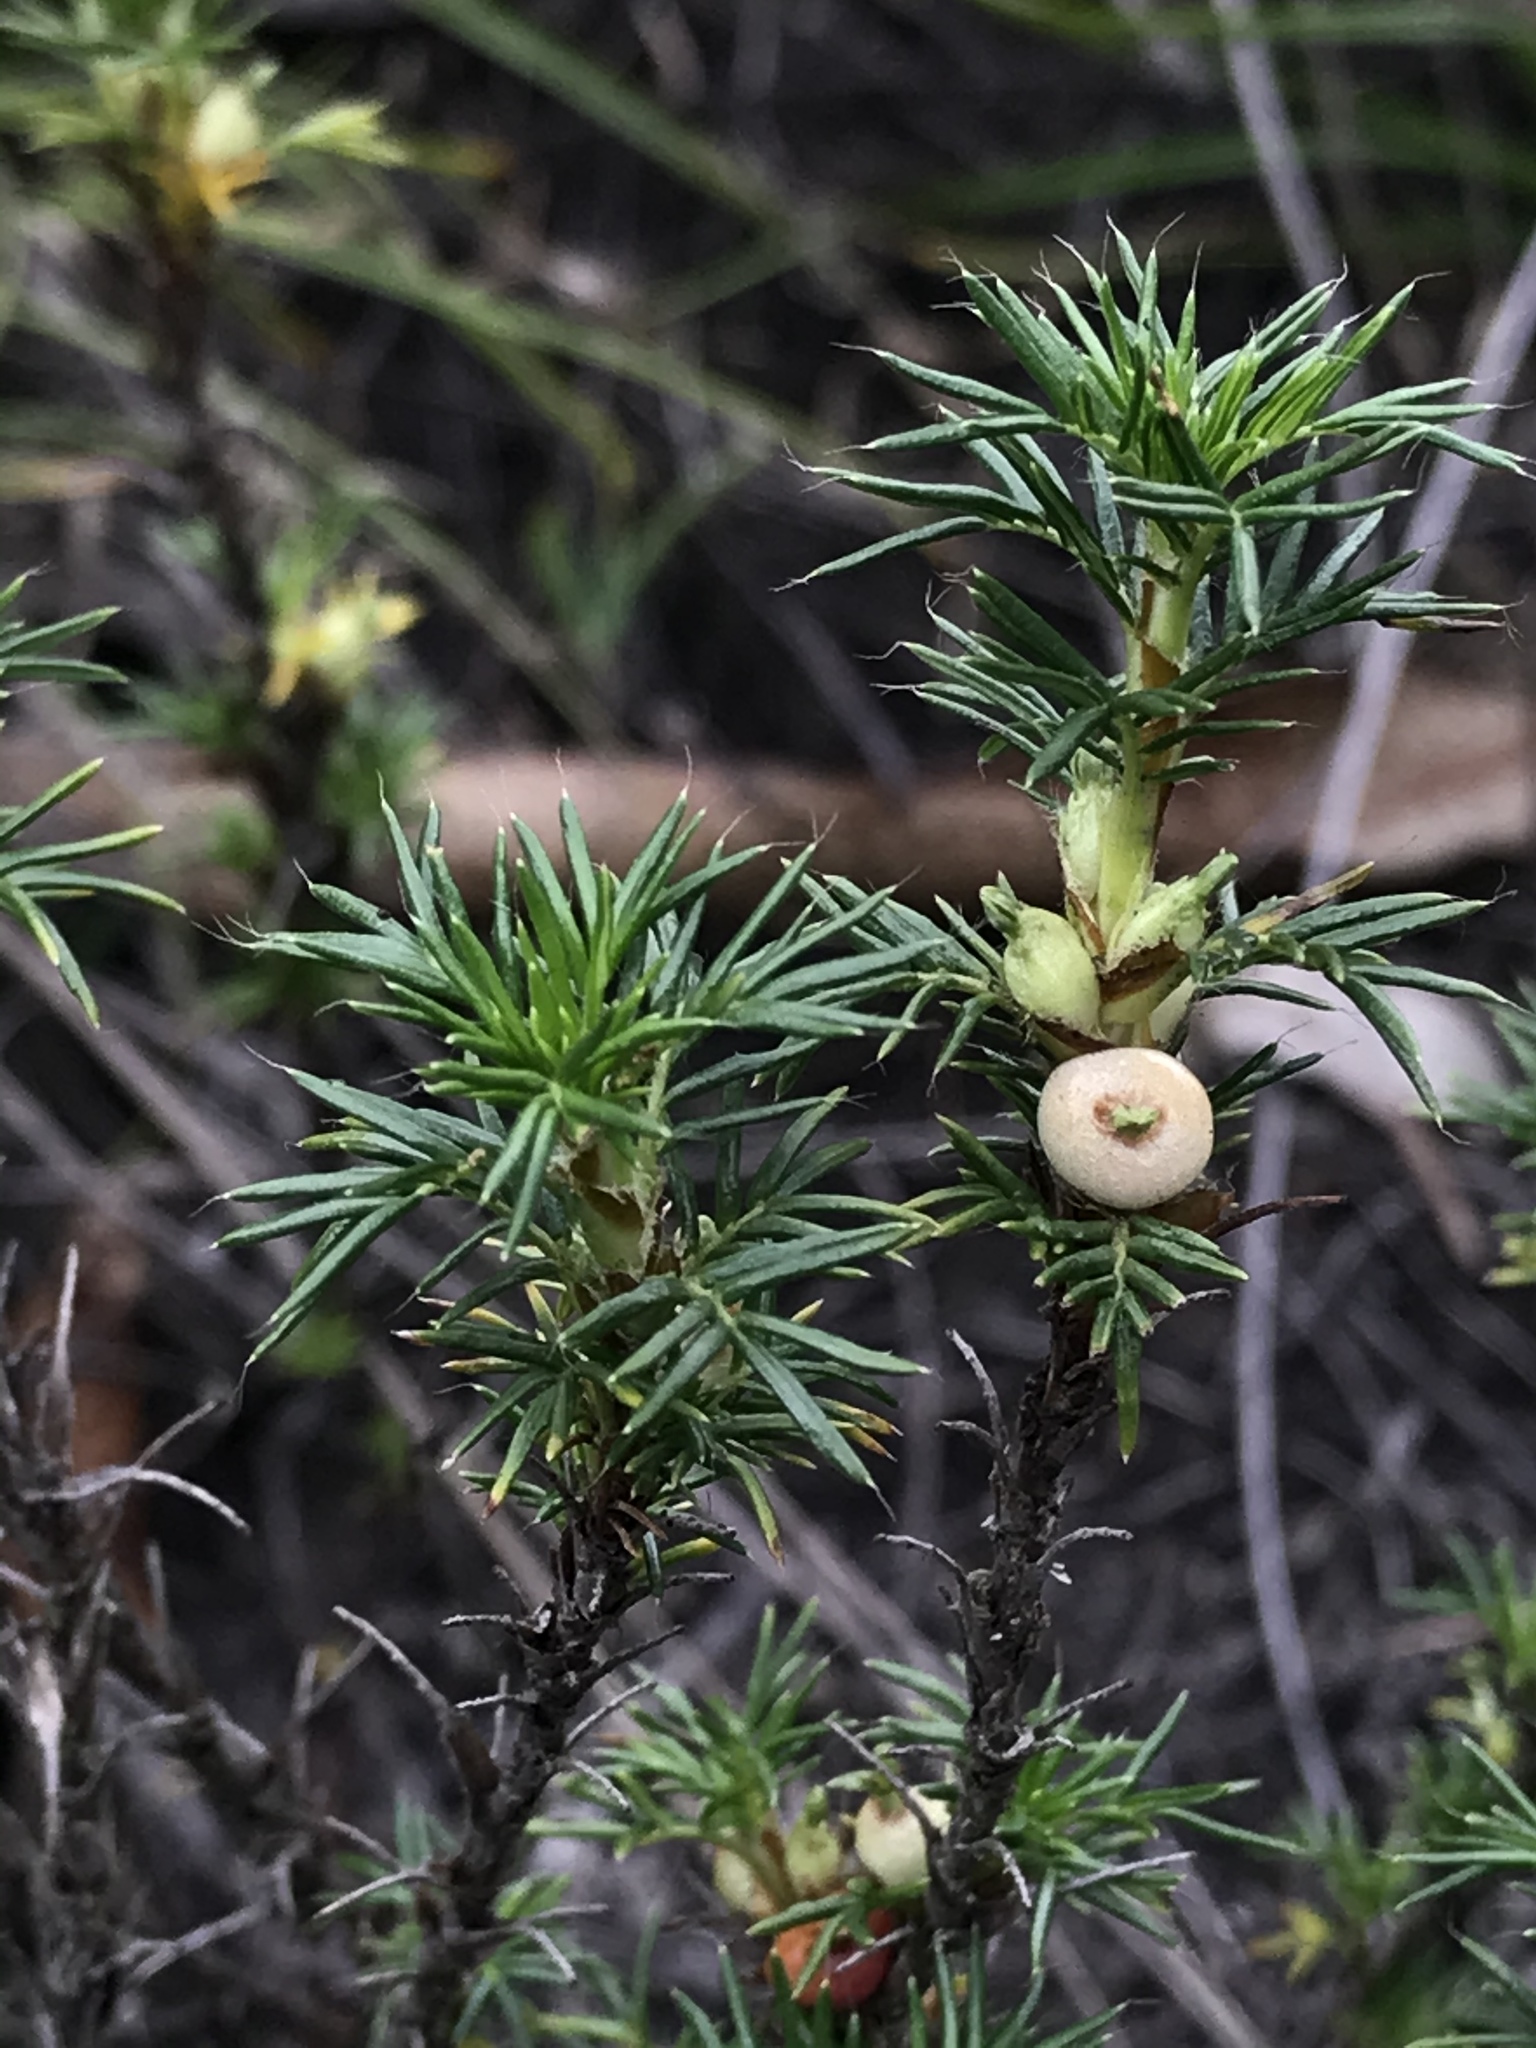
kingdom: Plantae
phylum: Tracheophyta
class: Magnoliopsida
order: Rosales
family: Rosaceae
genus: Margyricarpus
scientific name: Margyricarpus pinnatus
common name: Pearlfruit
